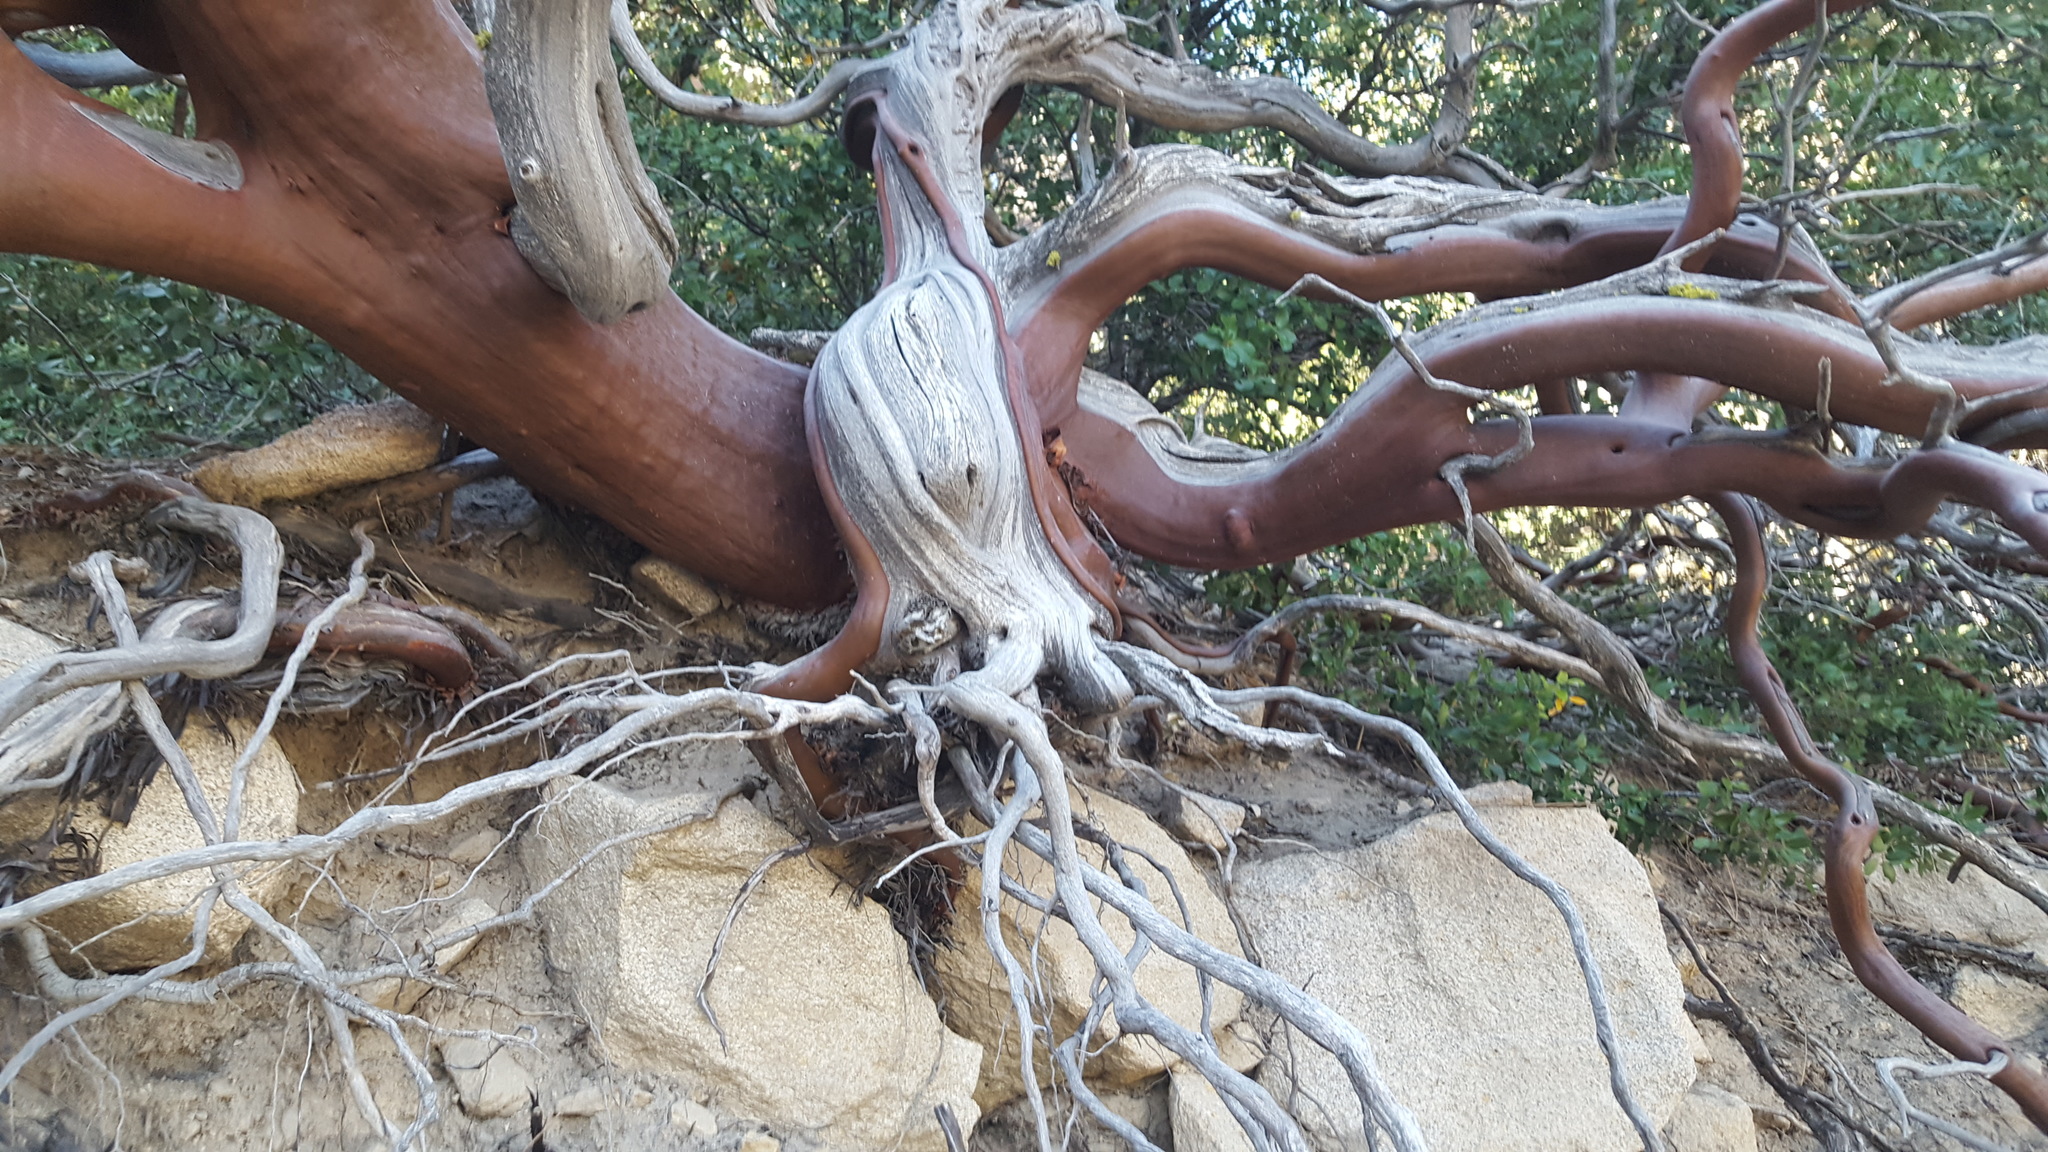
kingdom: Plantae
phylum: Tracheophyta
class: Magnoliopsida
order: Ericales
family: Ericaceae
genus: Arctostaphylos
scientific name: Arctostaphylos pringlei
